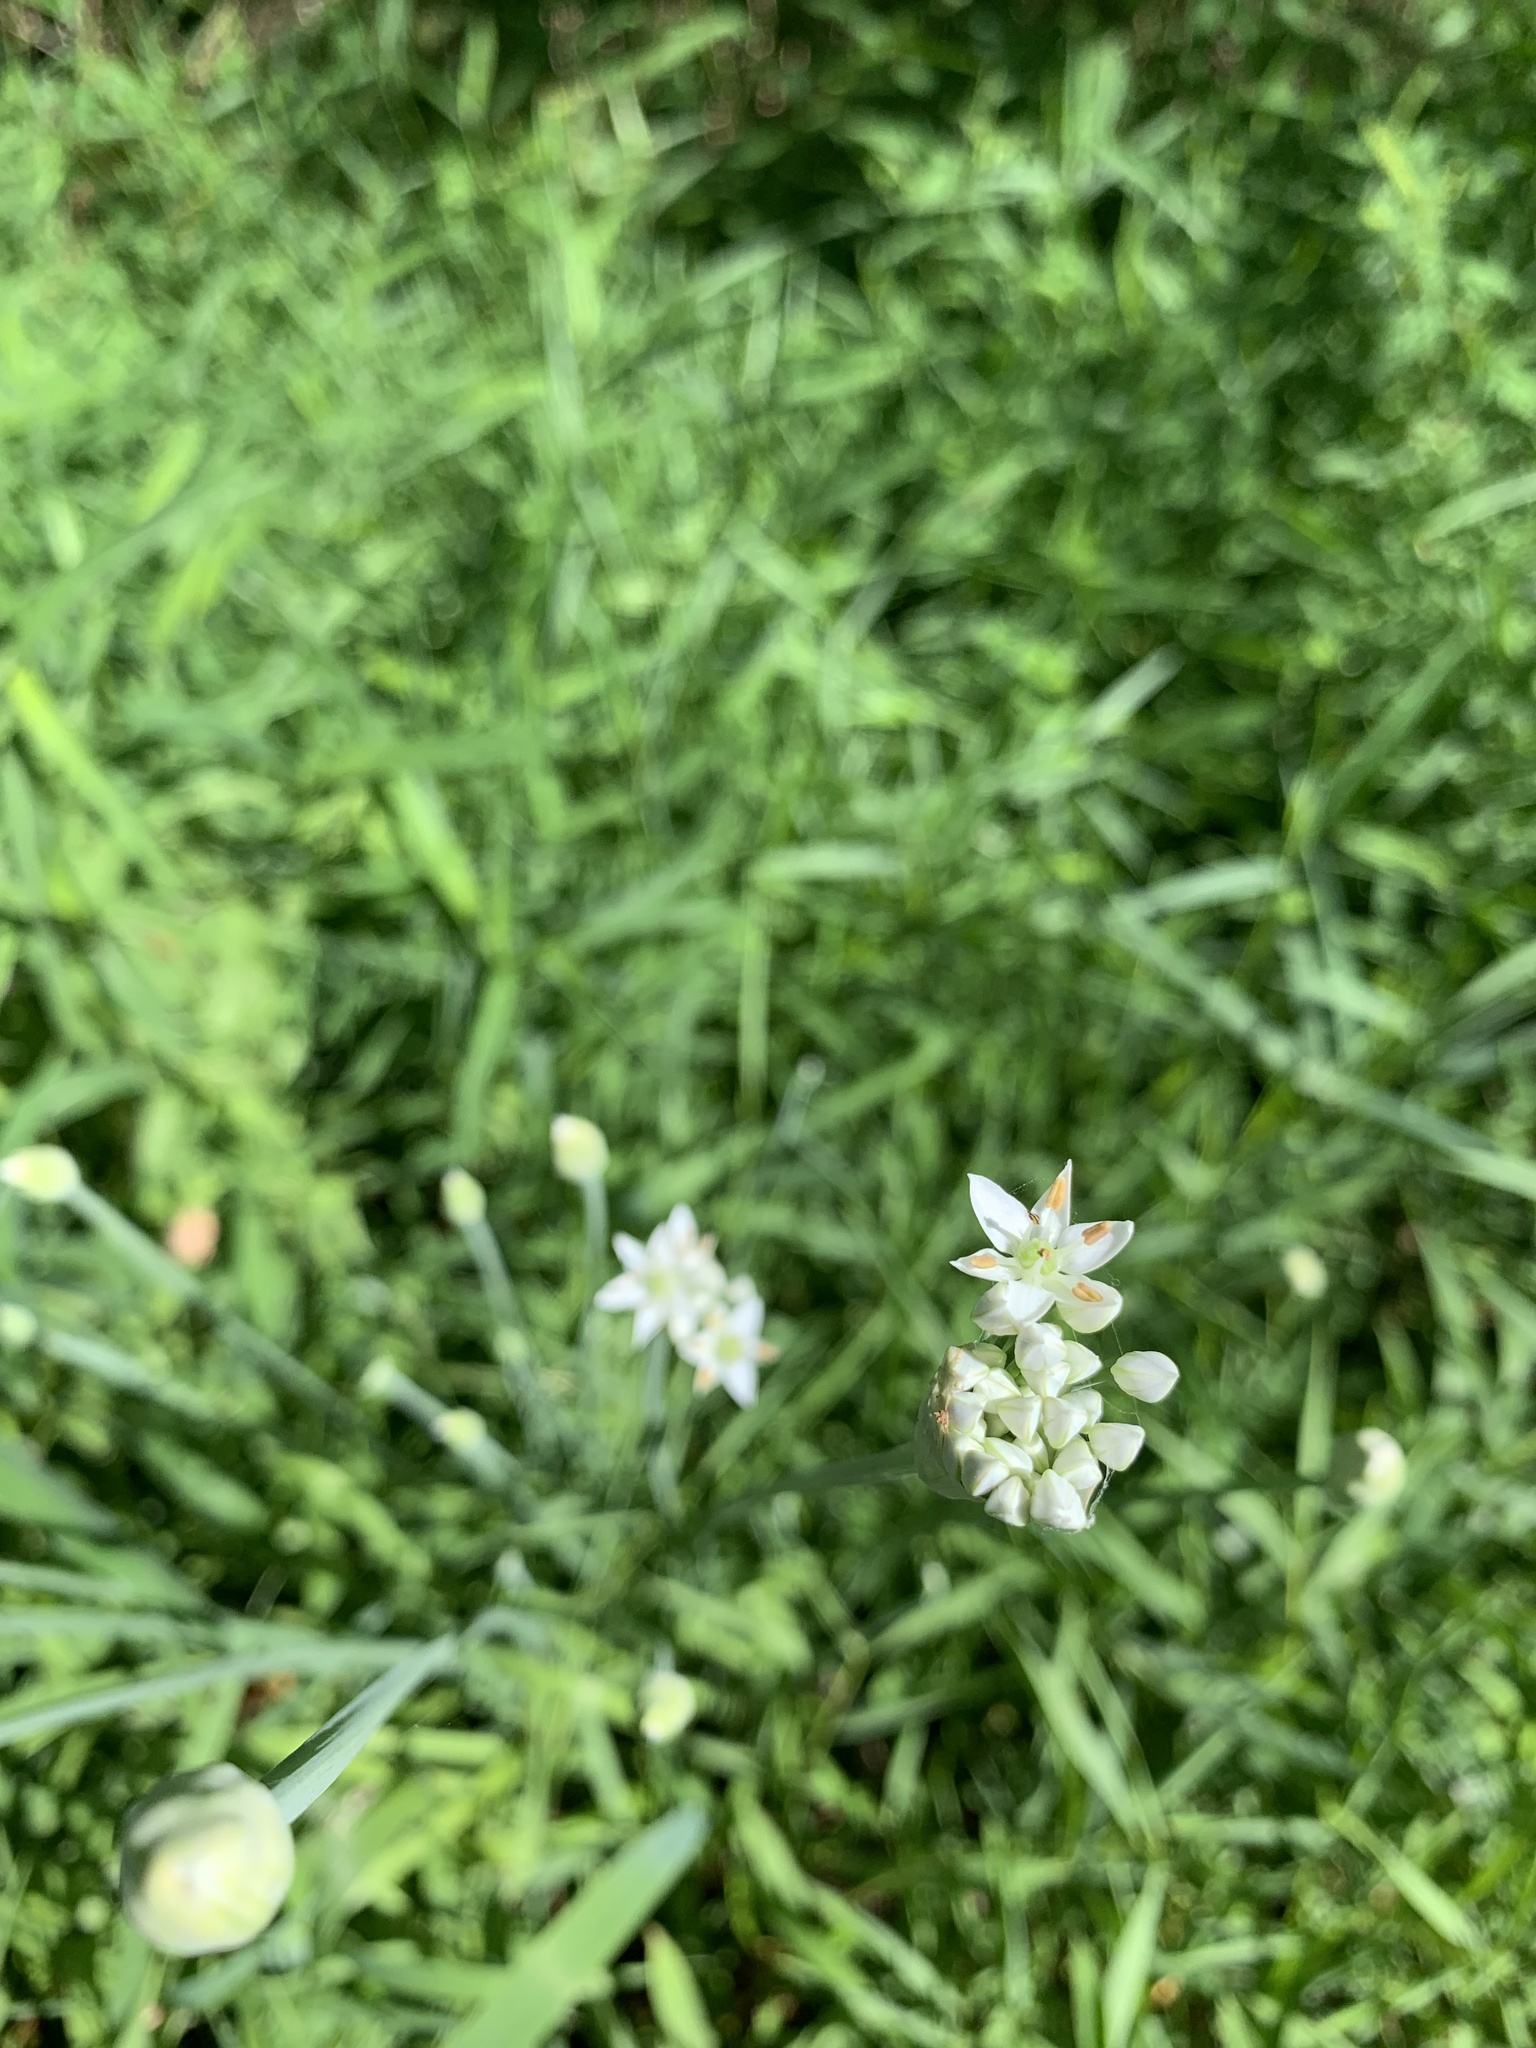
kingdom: Plantae
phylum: Tracheophyta
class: Liliopsida
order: Asparagales
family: Amaryllidaceae
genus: Allium
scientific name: Allium tuberosum
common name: Chinese chives
